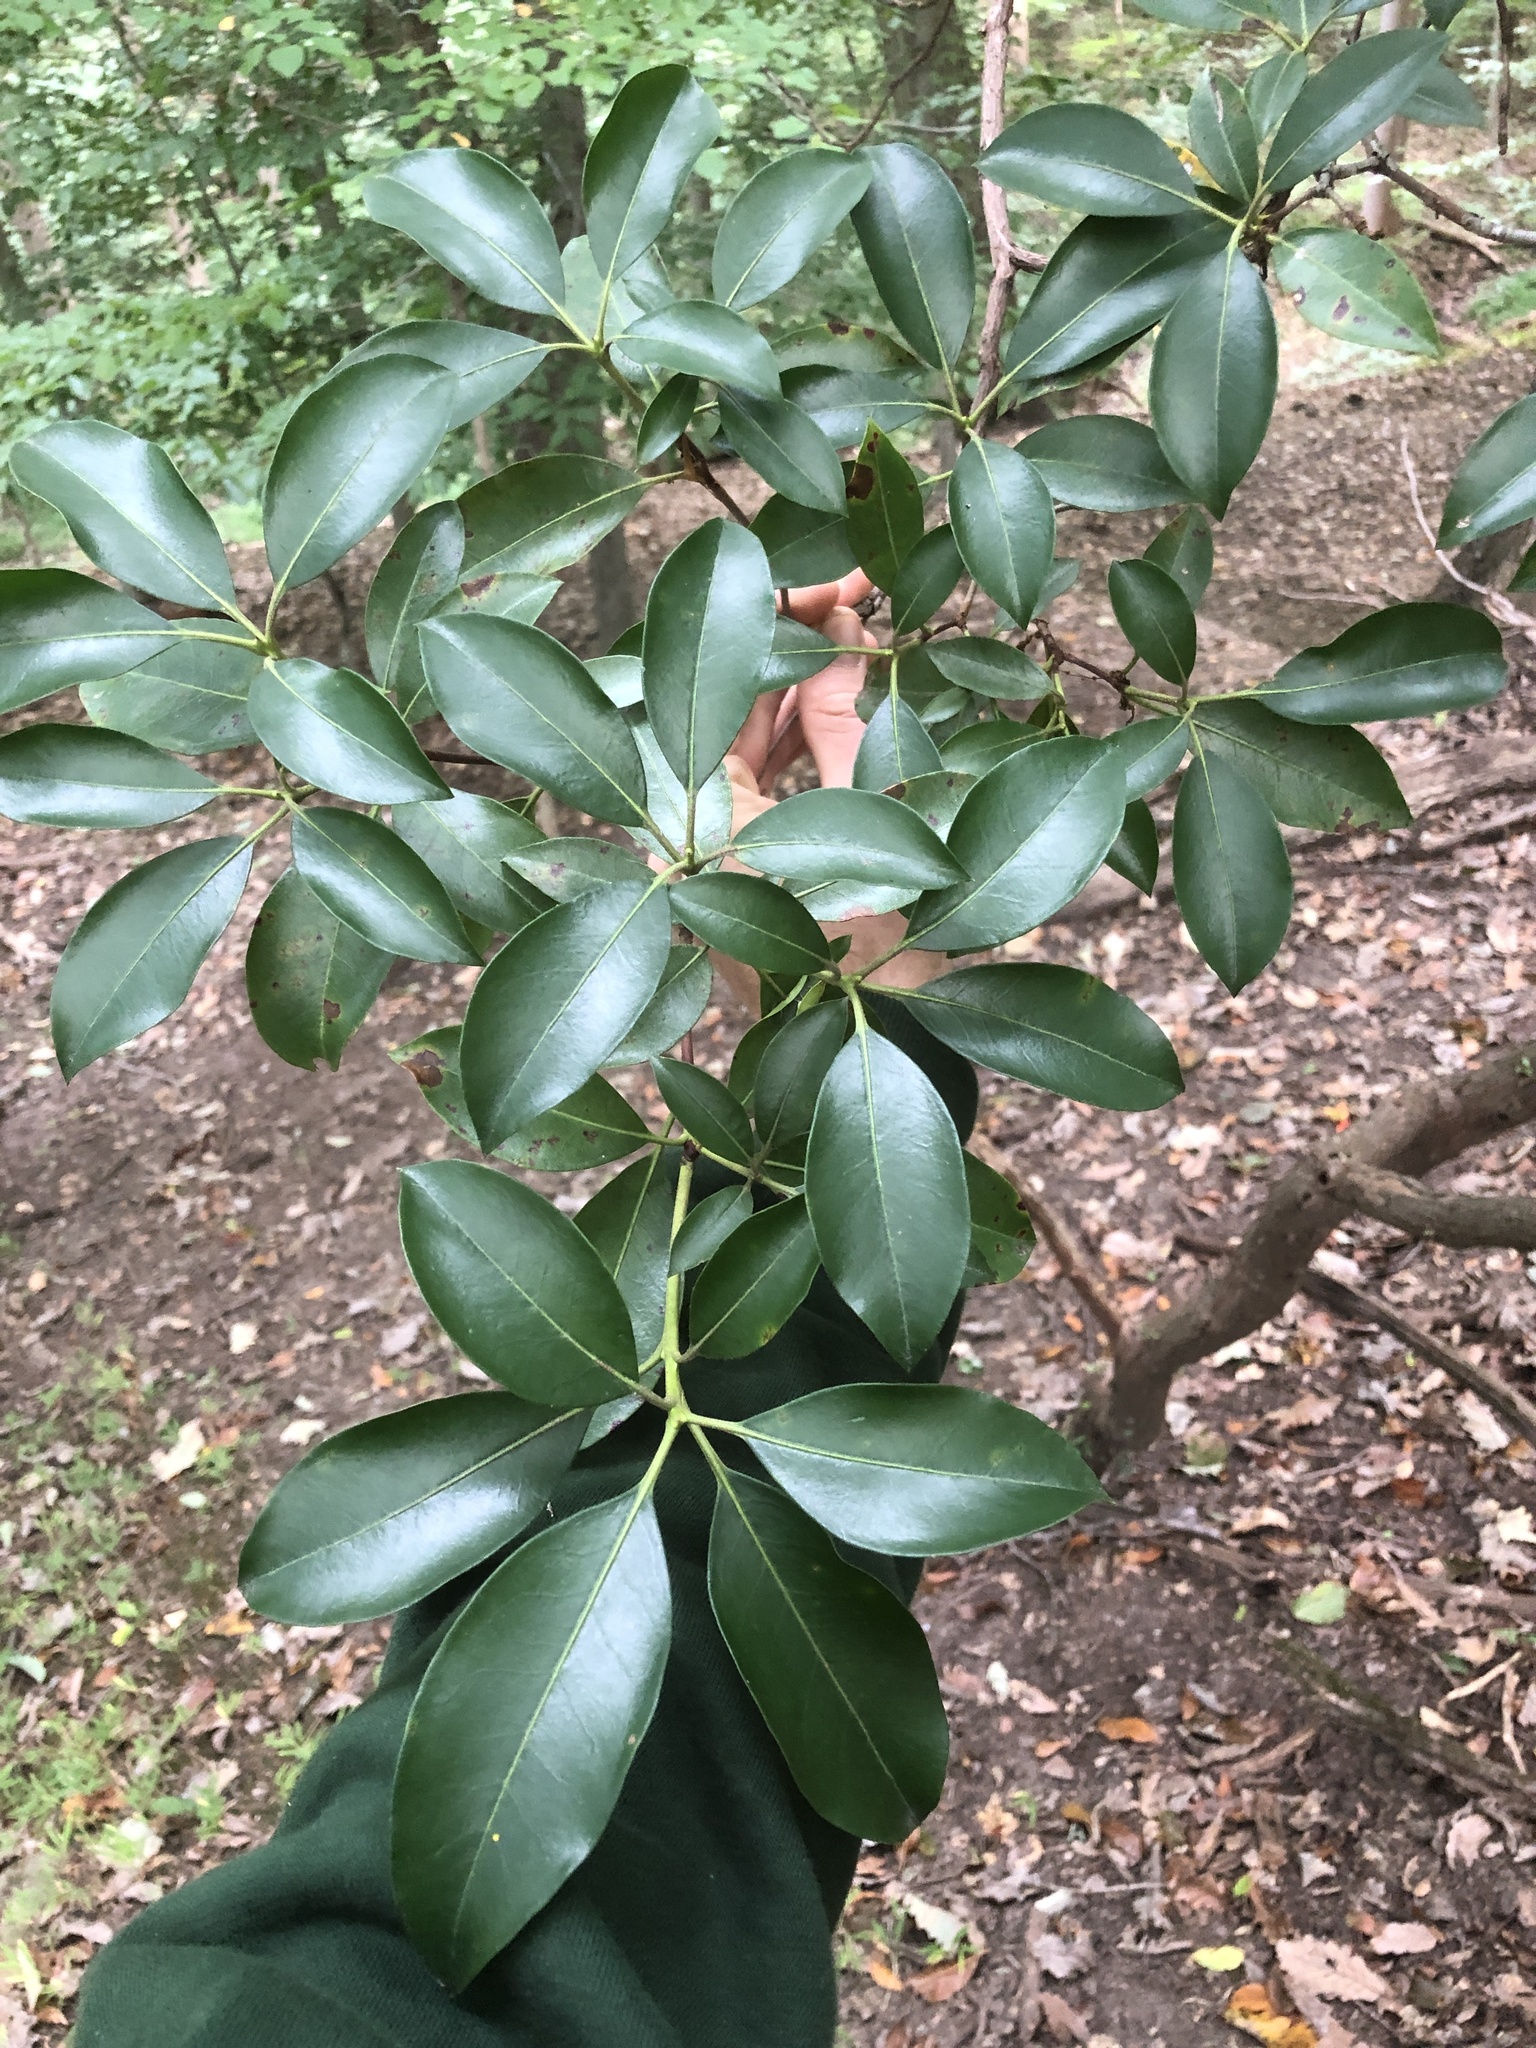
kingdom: Plantae
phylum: Tracheophyta
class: Magnoliopsida
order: Ericales
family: Ericaceae
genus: Kalmia
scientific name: Kalmia latifolia
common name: Mountain-laurel
